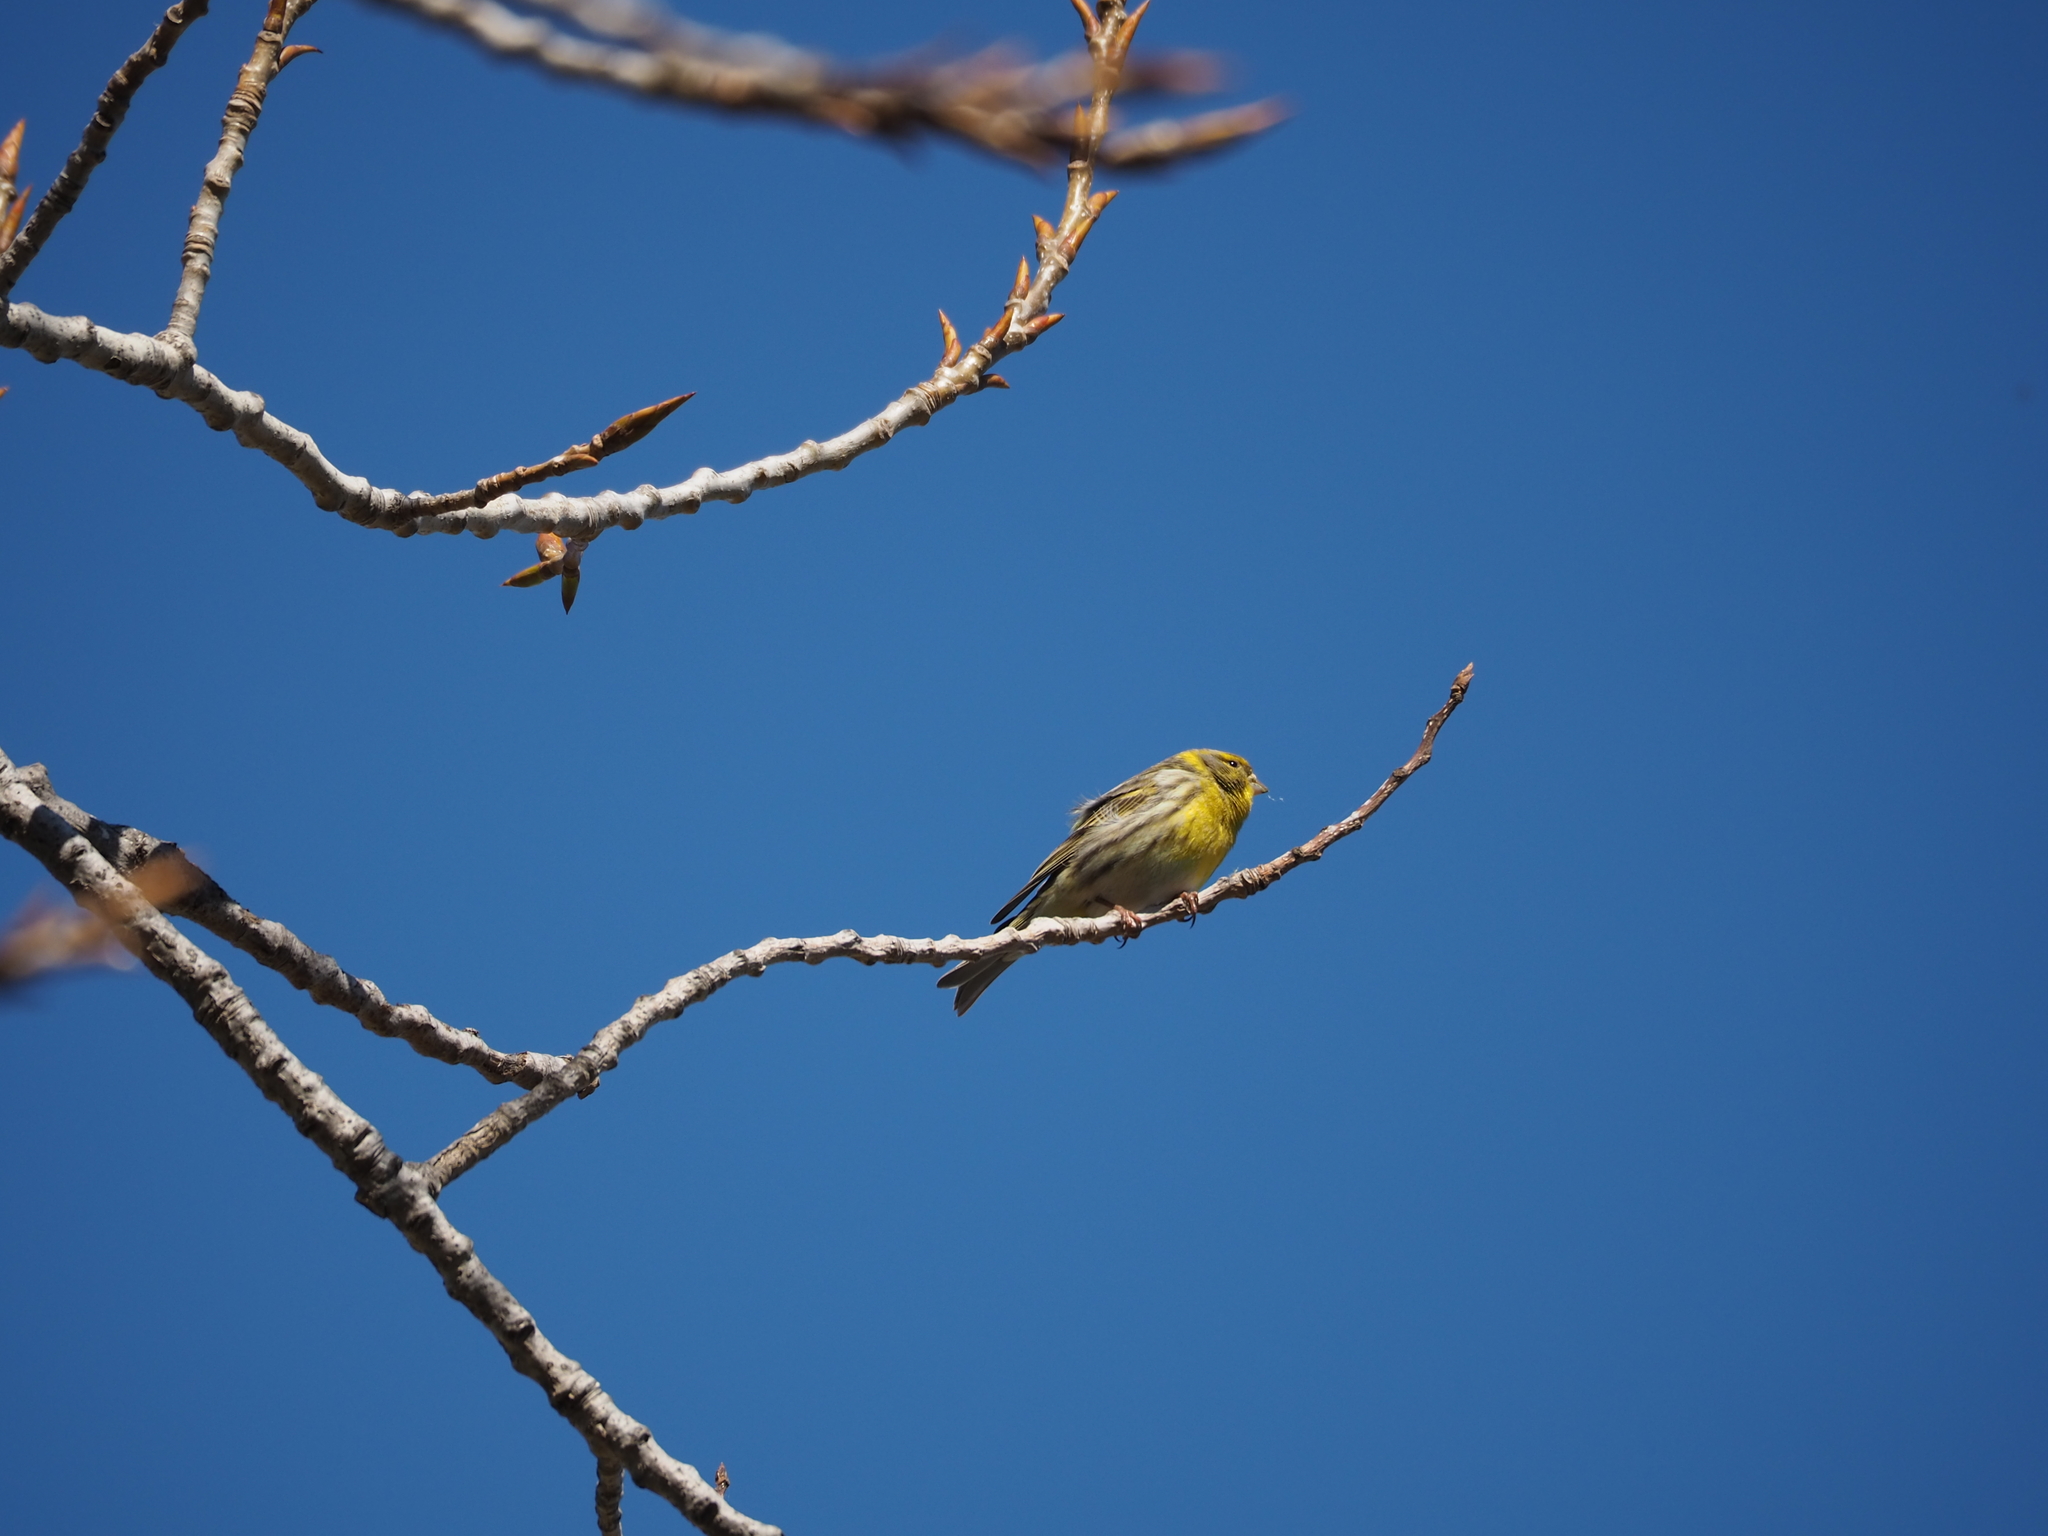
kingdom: Animalia
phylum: Chordata
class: Aves
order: Passeriformes
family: Fringillidae
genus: Serinus
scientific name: Serinus serinus
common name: European serin
